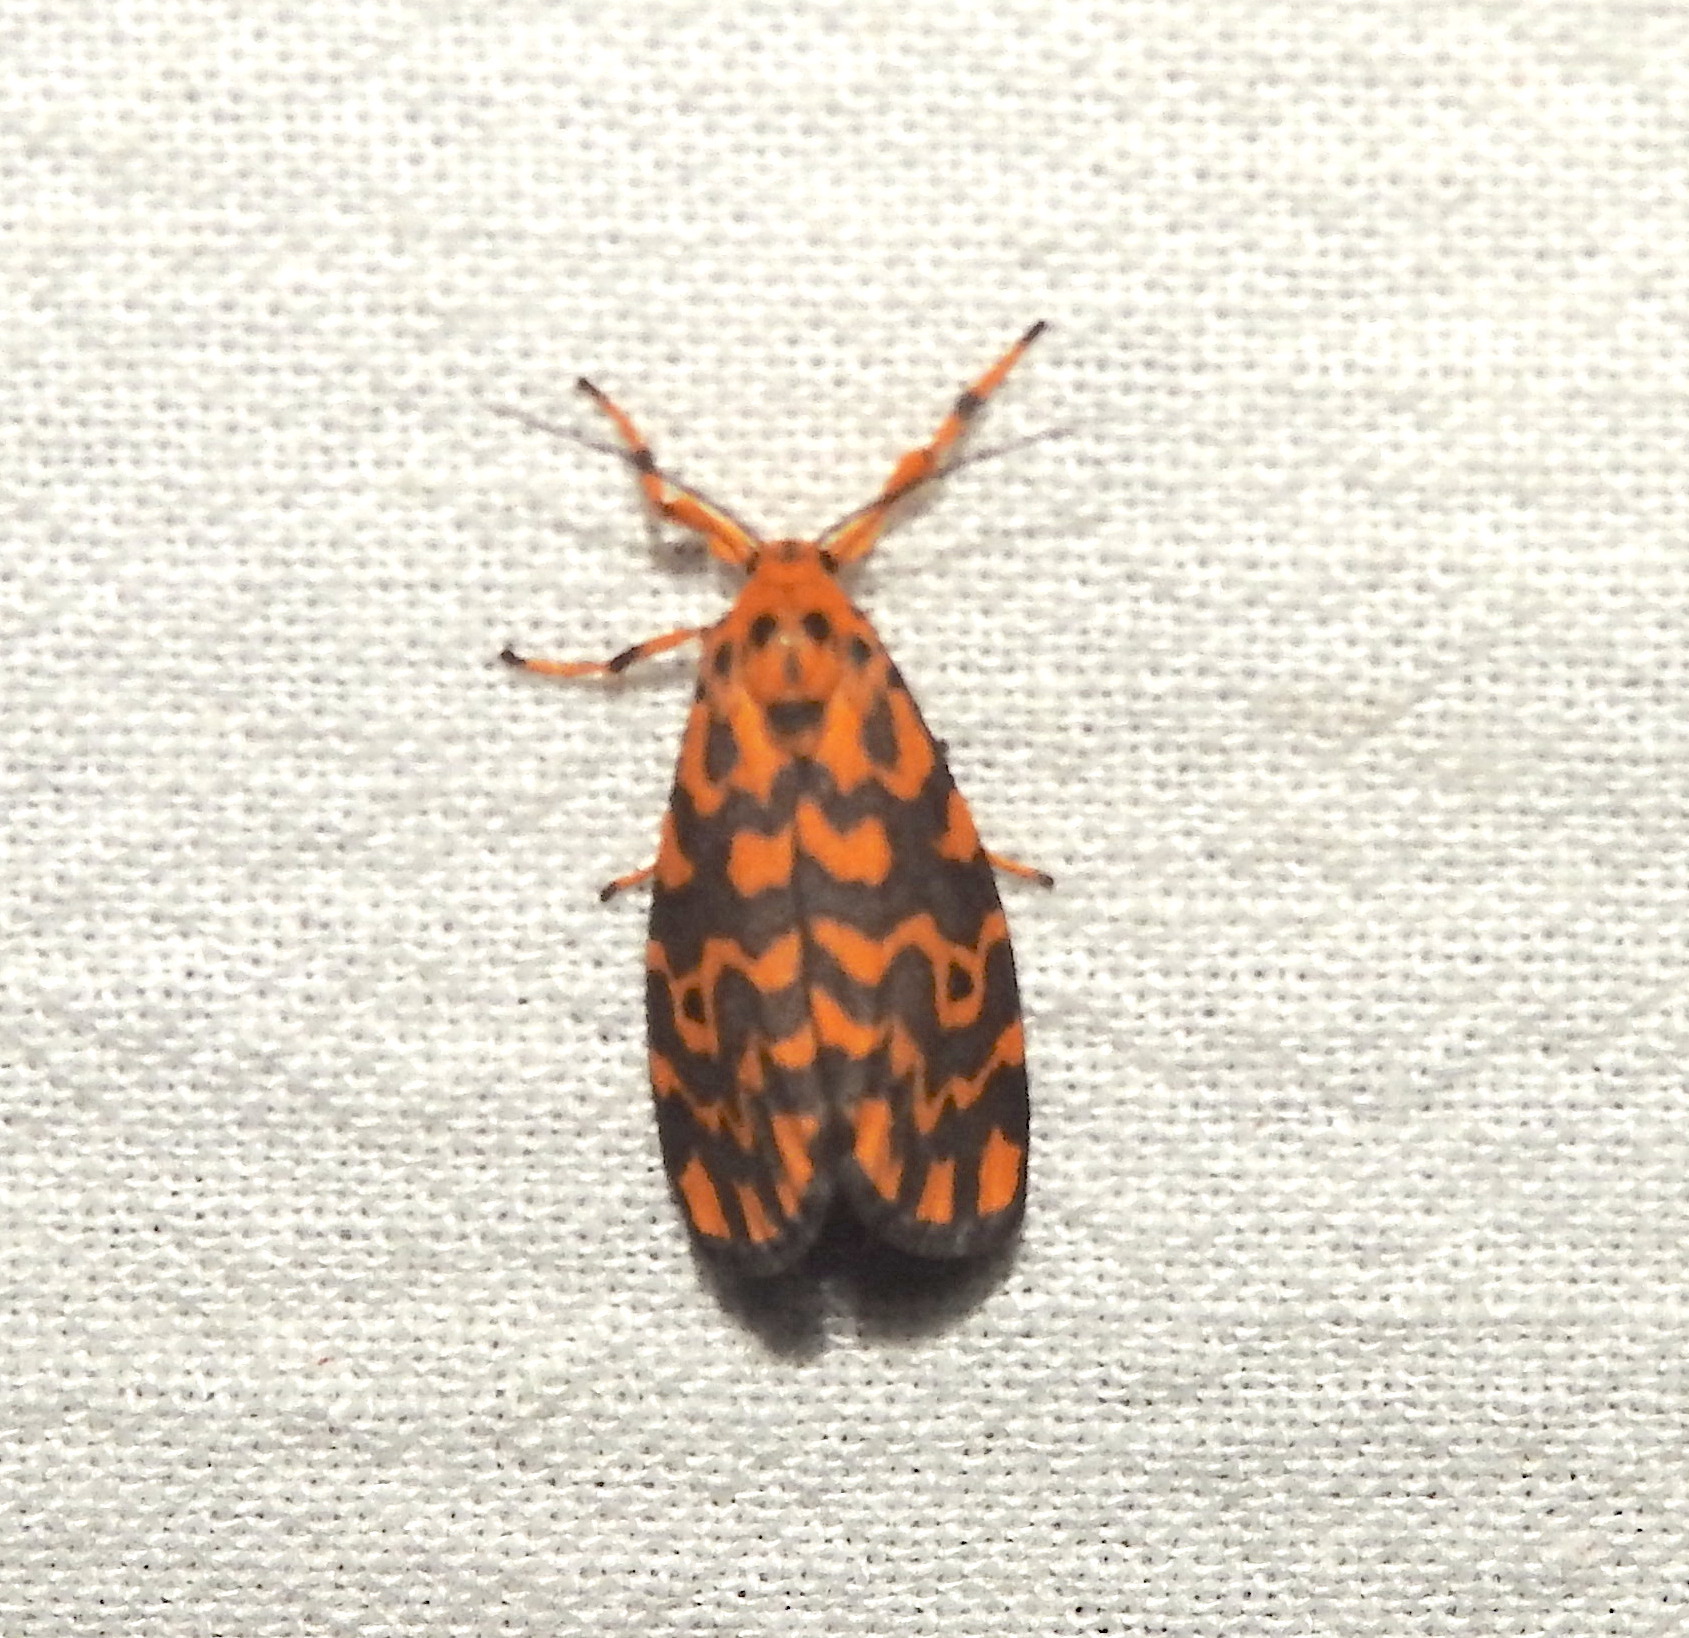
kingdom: Animalia
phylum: Arthropoda
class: Insecta
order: Lepidoptera
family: Erebidae
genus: Nepita
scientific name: Nepita conferta
